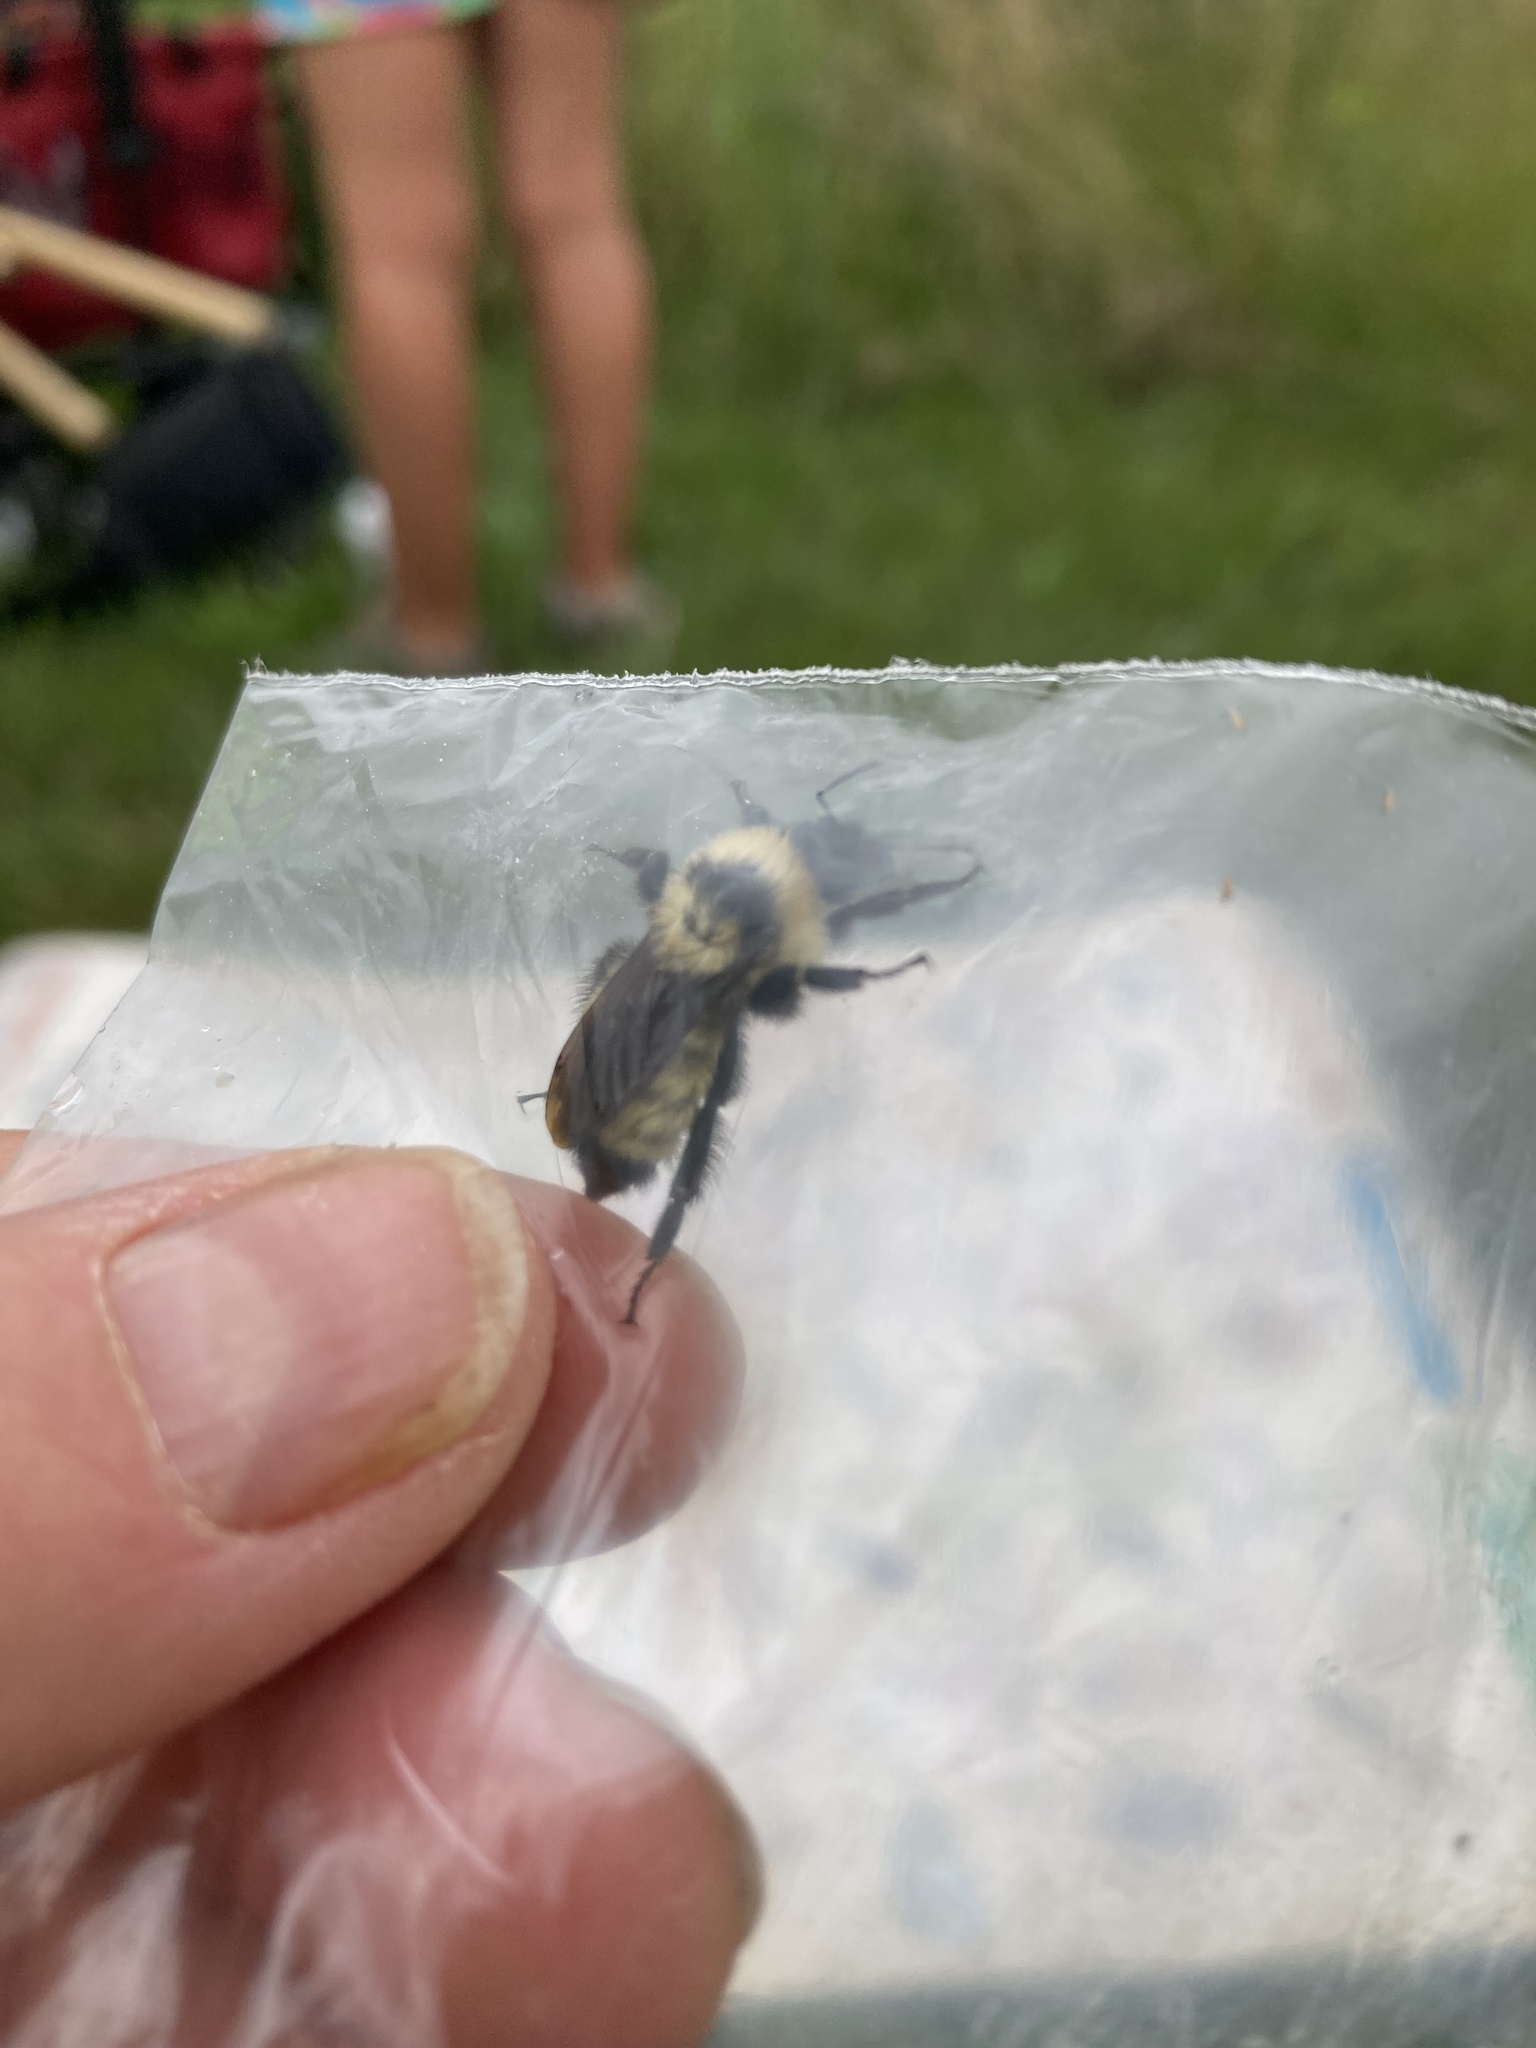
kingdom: Animalia
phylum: Arthropoda
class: Insecta
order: Hymenoptera
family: Apidae
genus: Bombus
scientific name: Bombus fervidus
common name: Yellow bumble bee
